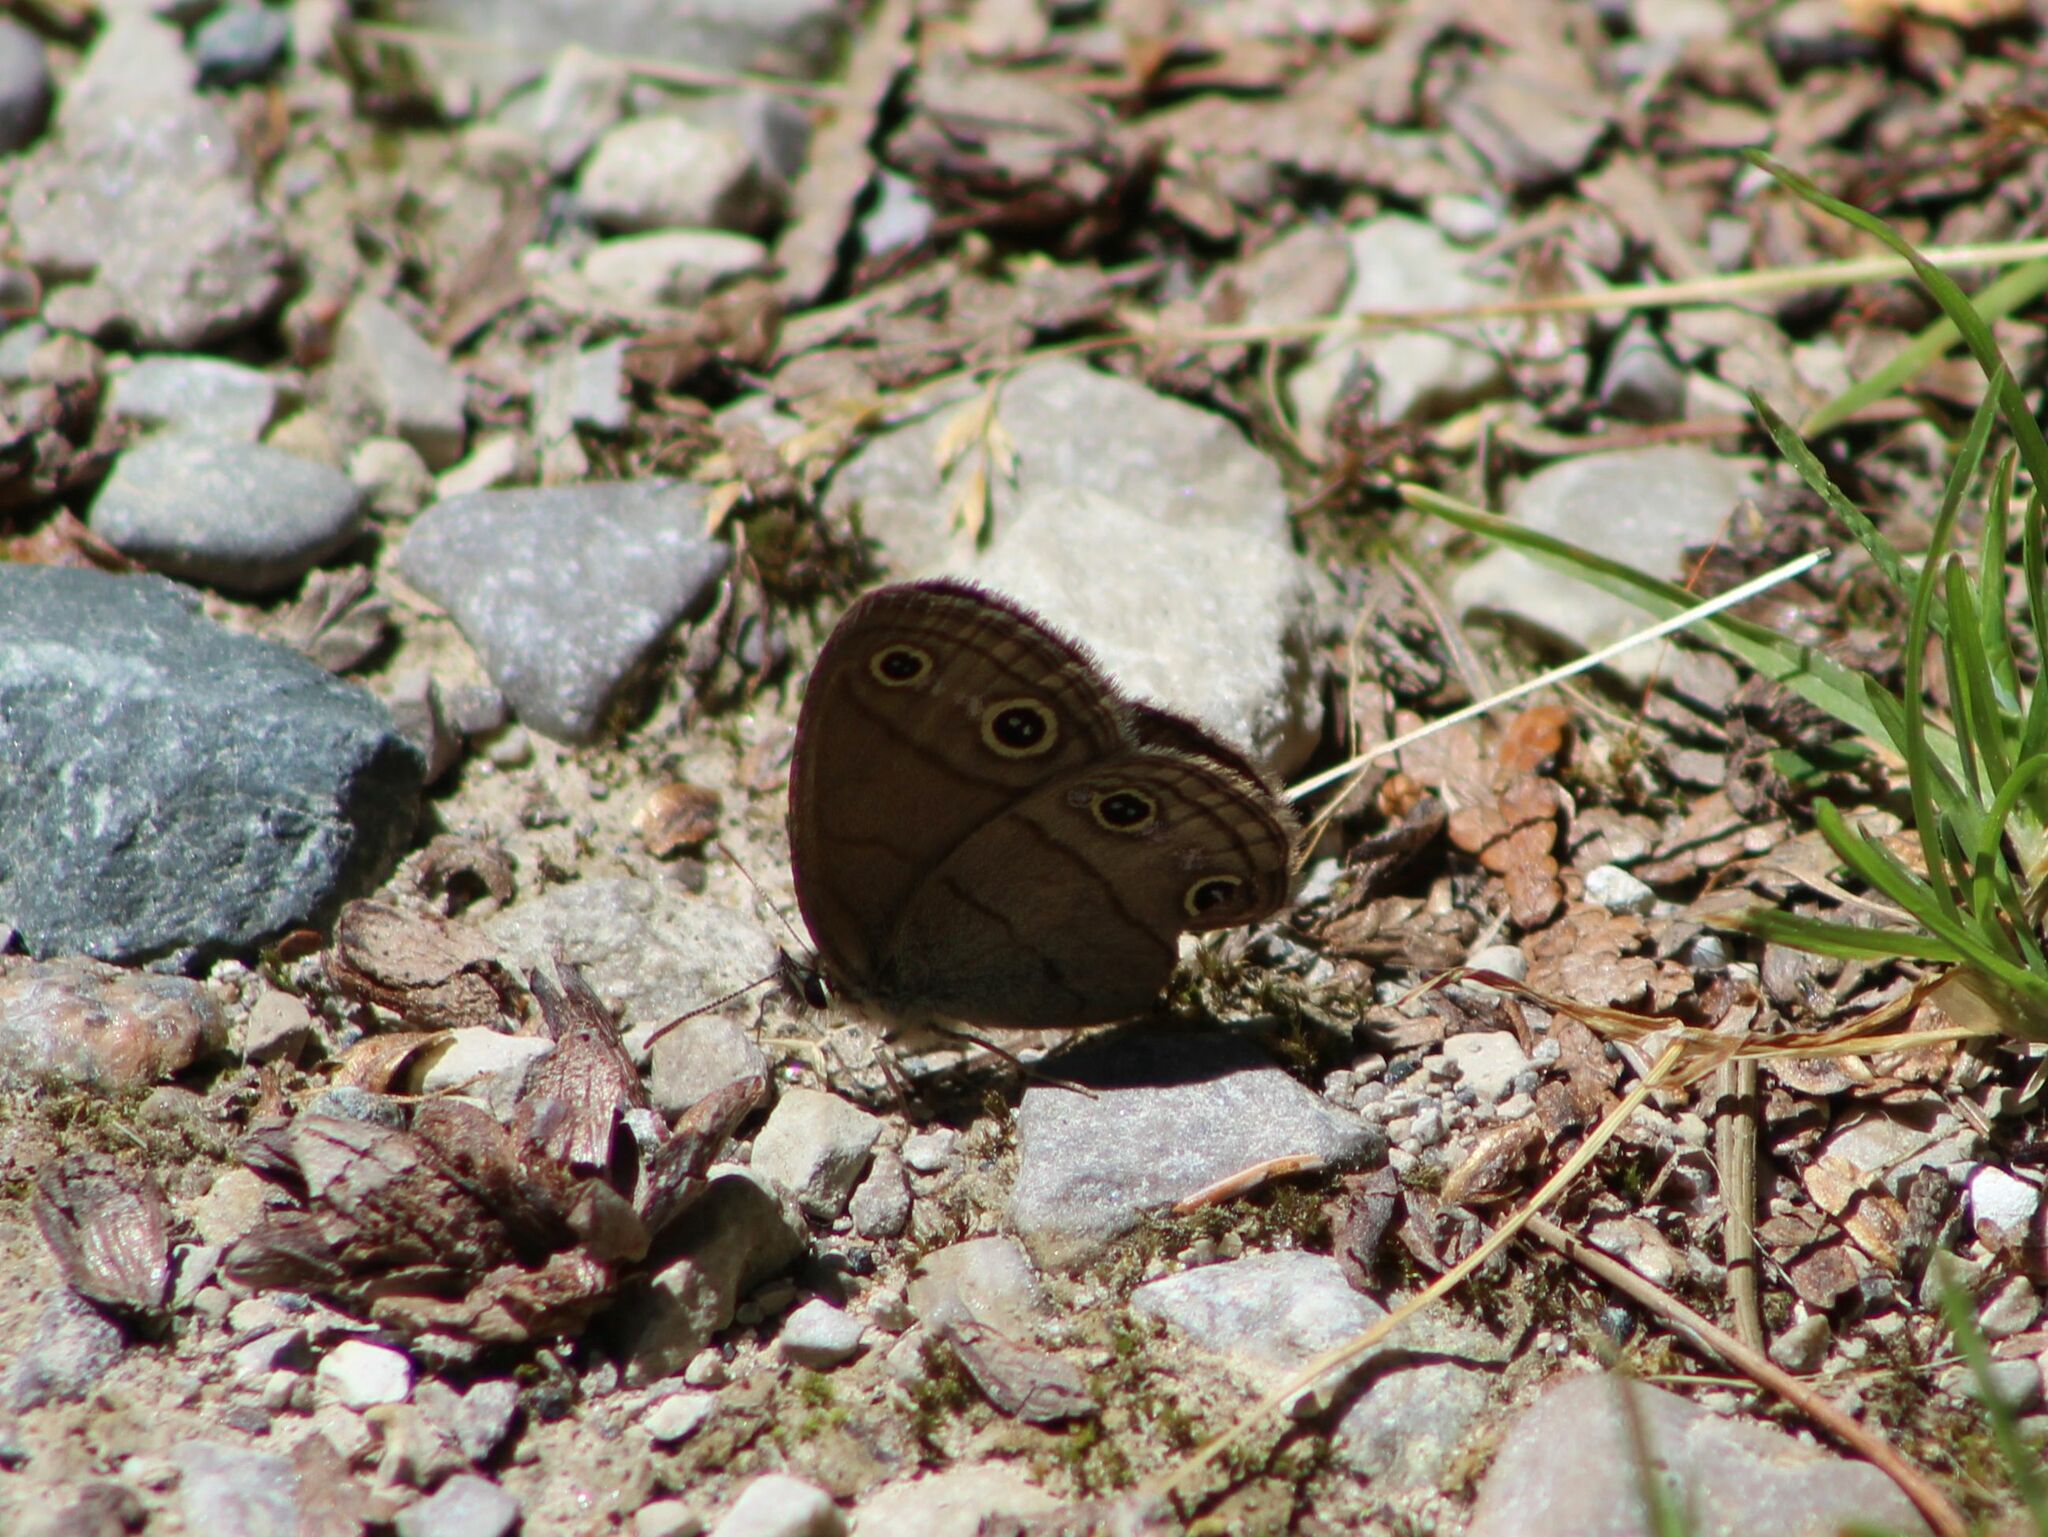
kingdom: Animalia
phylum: Arthropoda
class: Insecta
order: Lepidoptera
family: Nymphalidae
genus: Euptychia
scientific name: Euptychia cymela
